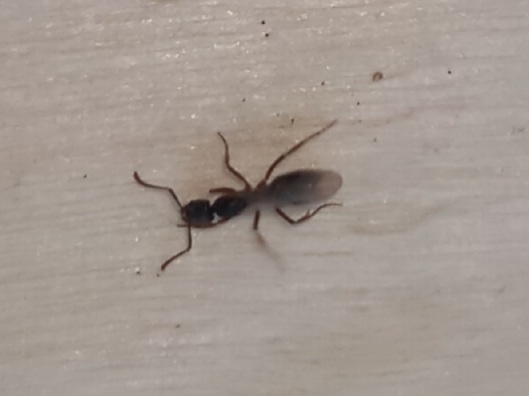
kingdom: Animalia
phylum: Arthropoda
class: Insecta
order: Hymenoptera
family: Formicidae
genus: Pachycondyla
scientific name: Pachycondyla chinensis
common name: Asian needle ant
